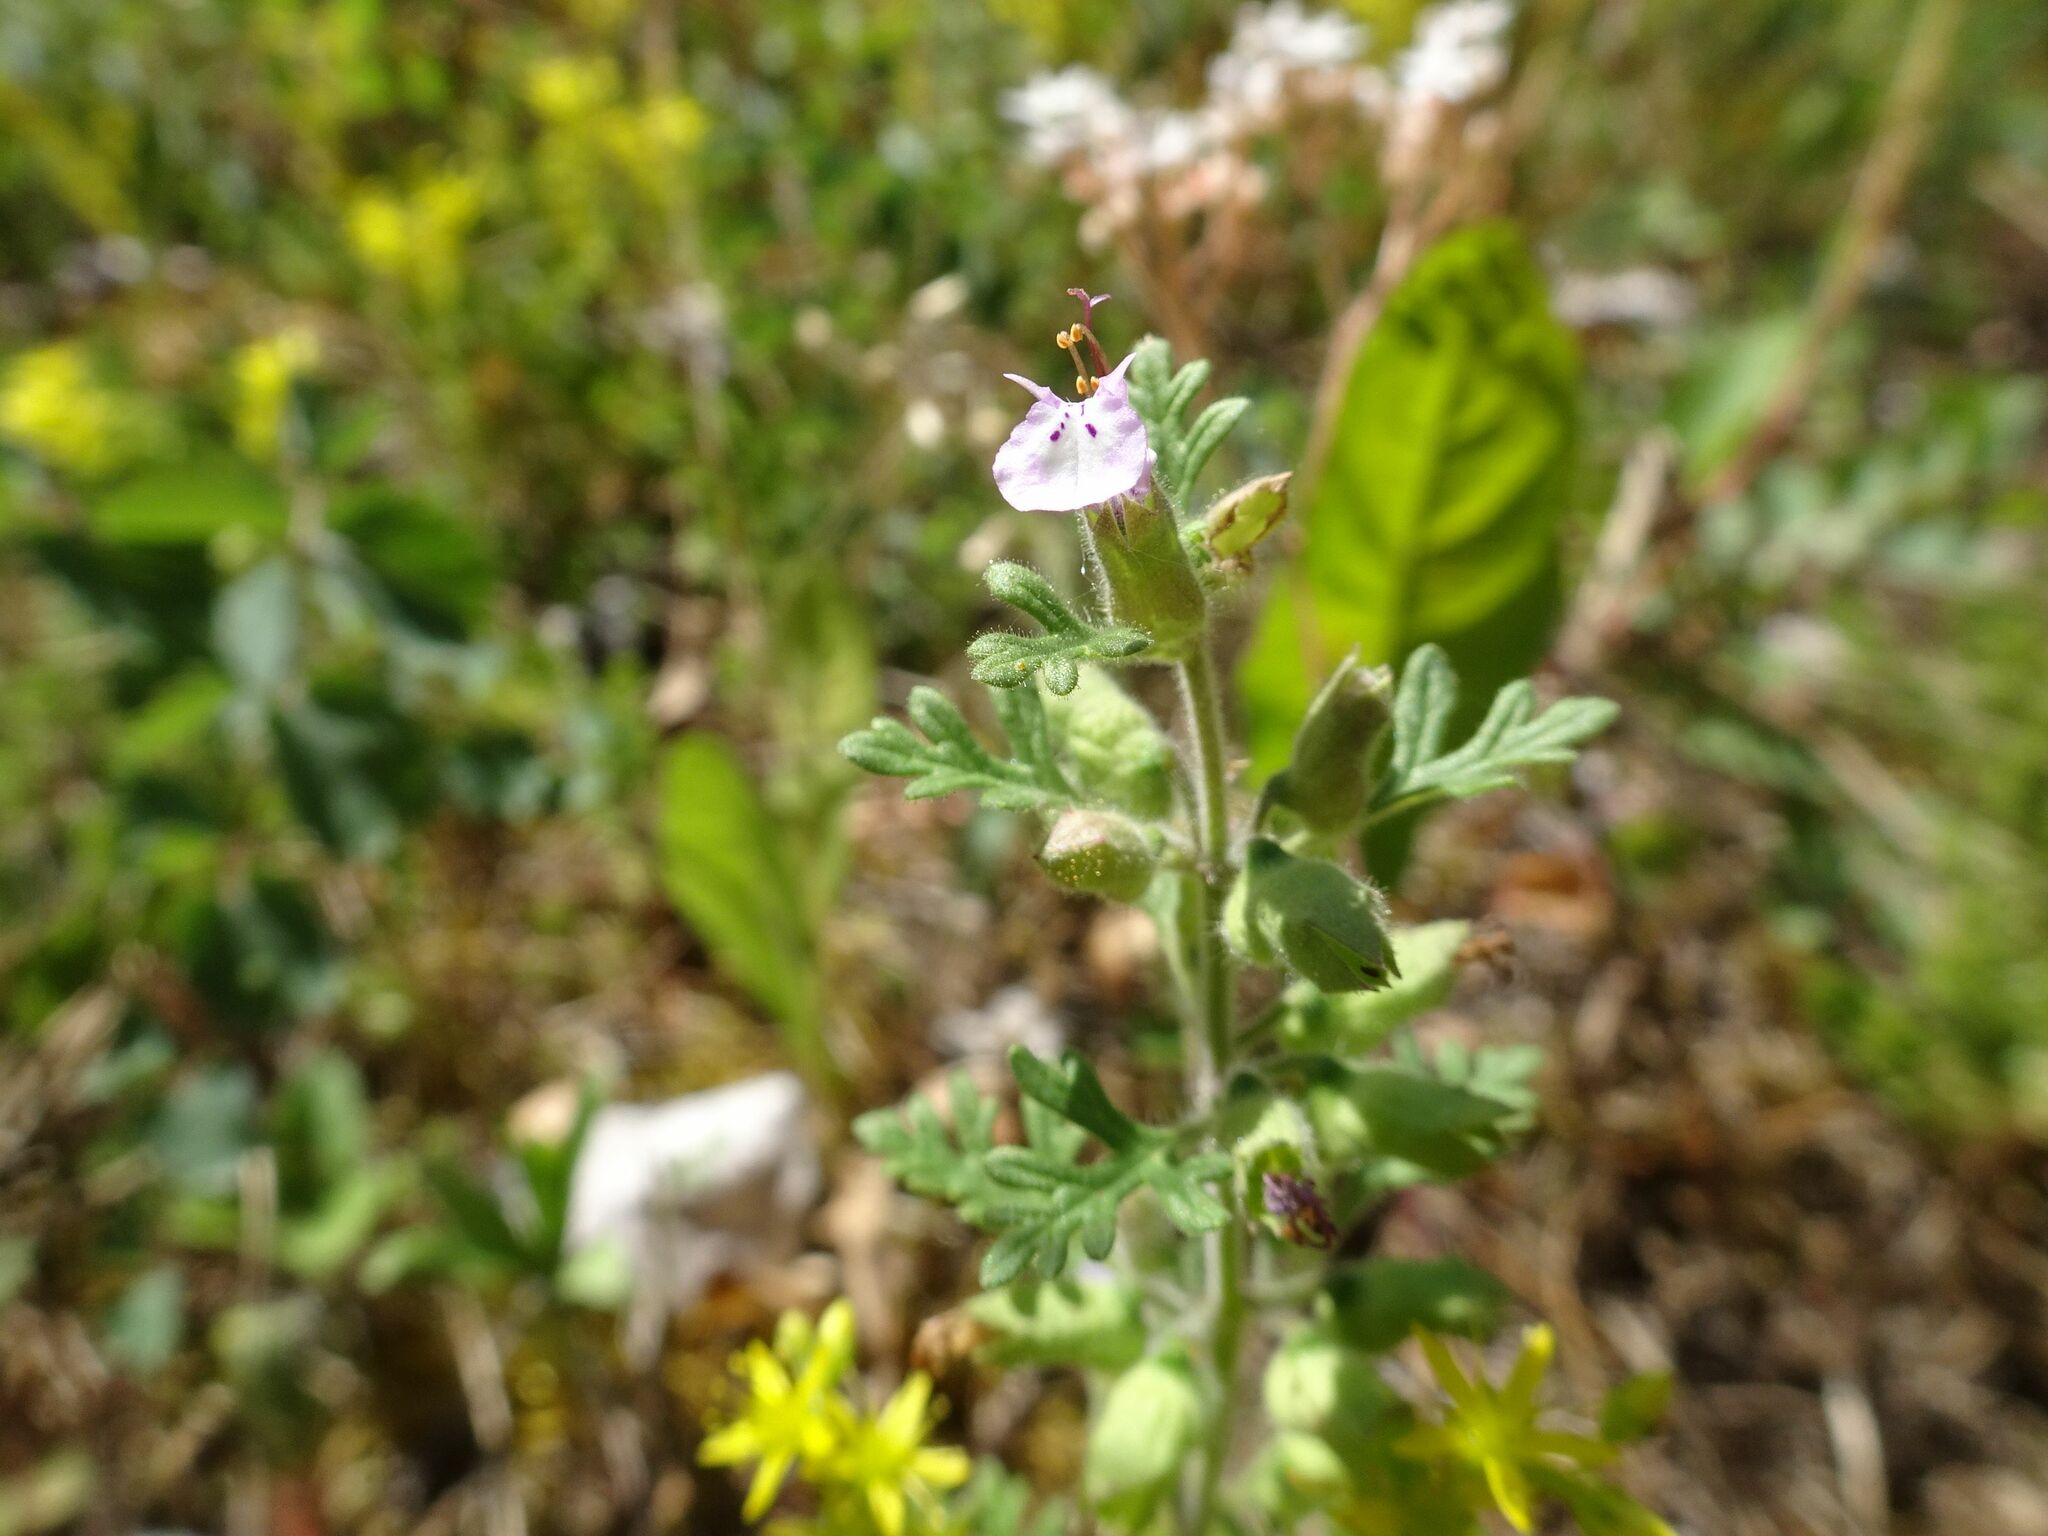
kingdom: Plantae
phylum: Tracheophyta
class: Magnoliopsida
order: Lamiales
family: Lamiaceae
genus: Teucrium
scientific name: Teucrium botrys
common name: Cut-leaved germander
